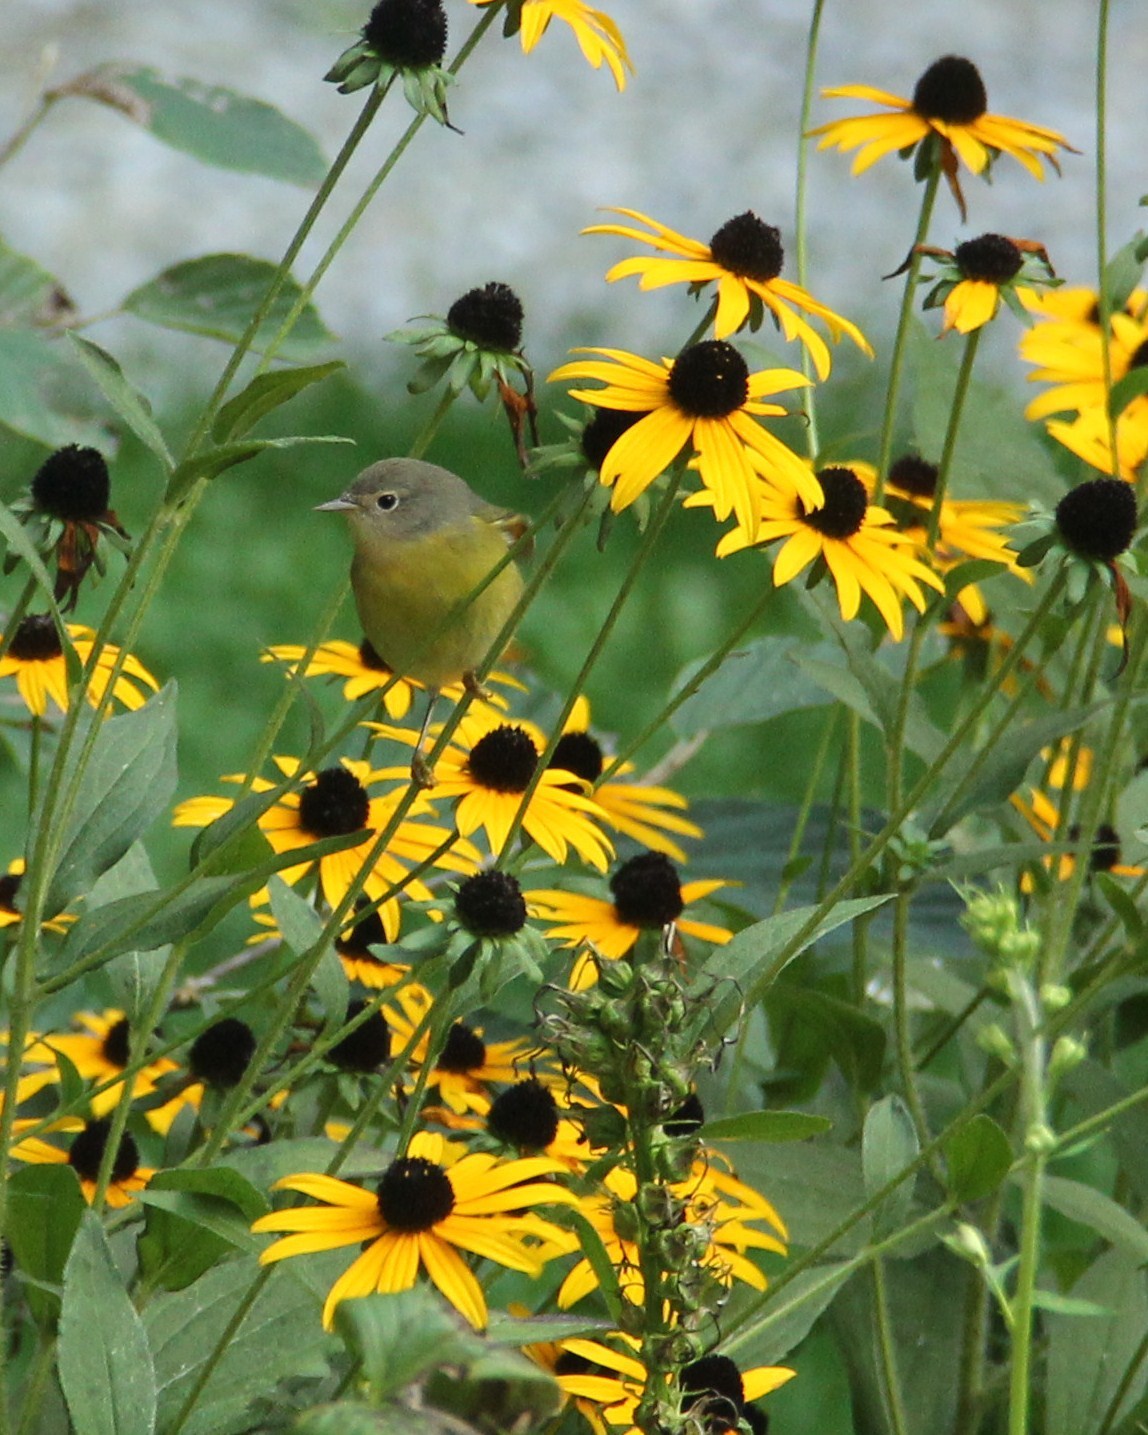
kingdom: Animalia
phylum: Chordata
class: Aves
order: Passeriformes
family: Parulidae
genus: Leiothlypis
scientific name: Leiothlypis ruficapilla
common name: Nashville warbler
